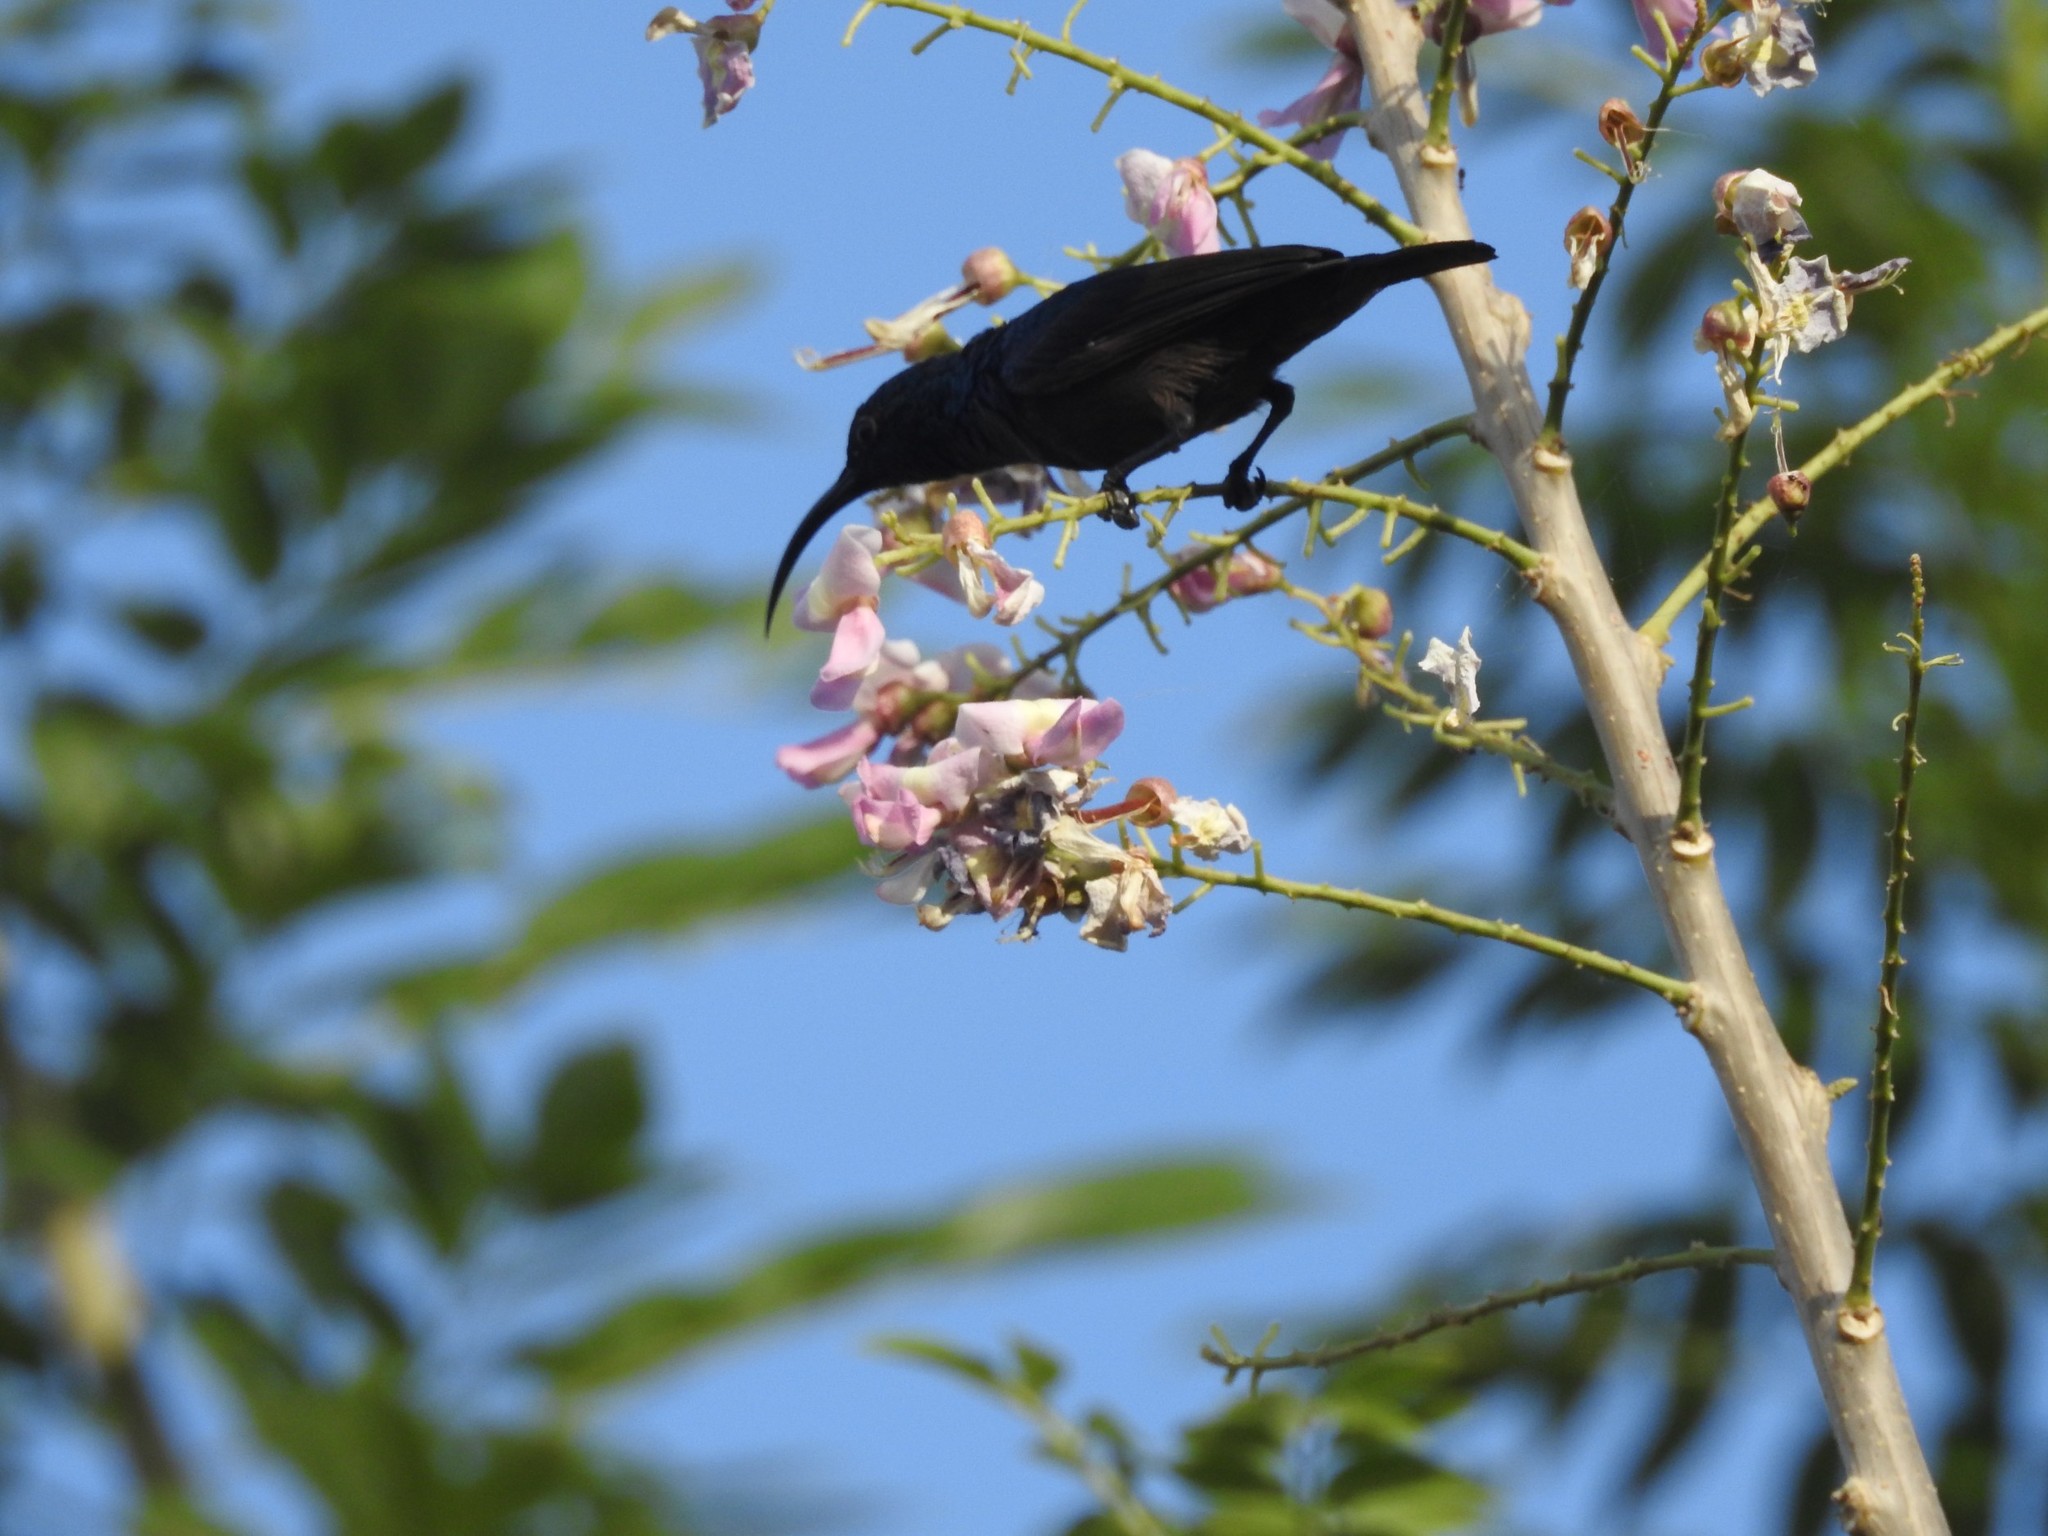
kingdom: Animalia
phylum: Chordata
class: Aves
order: Passeriformes
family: Nectariniidae
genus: Cinnyris
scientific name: Cinnyris lotenius
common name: Loten's sunbird
